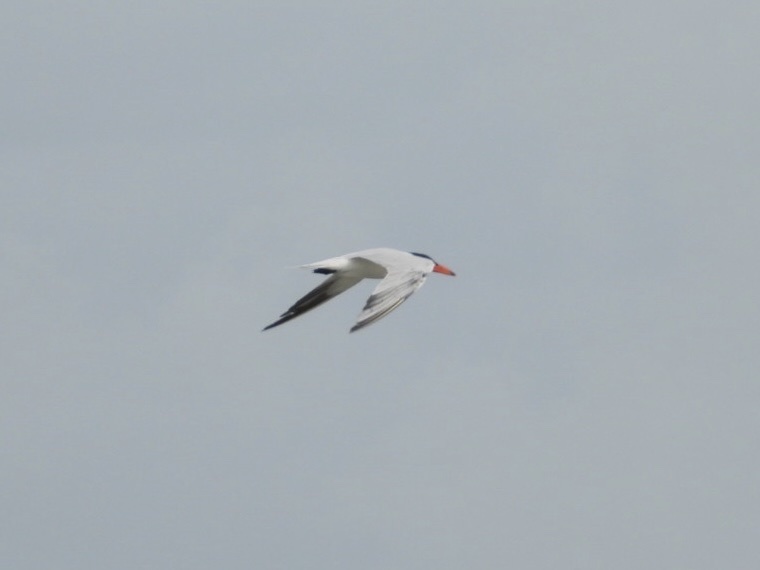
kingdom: Animalia
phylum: Chordata
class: Aves
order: Charadriiformes
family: Laridae
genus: Thalasseus
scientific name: Thalasseus maximus
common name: Royal tern
